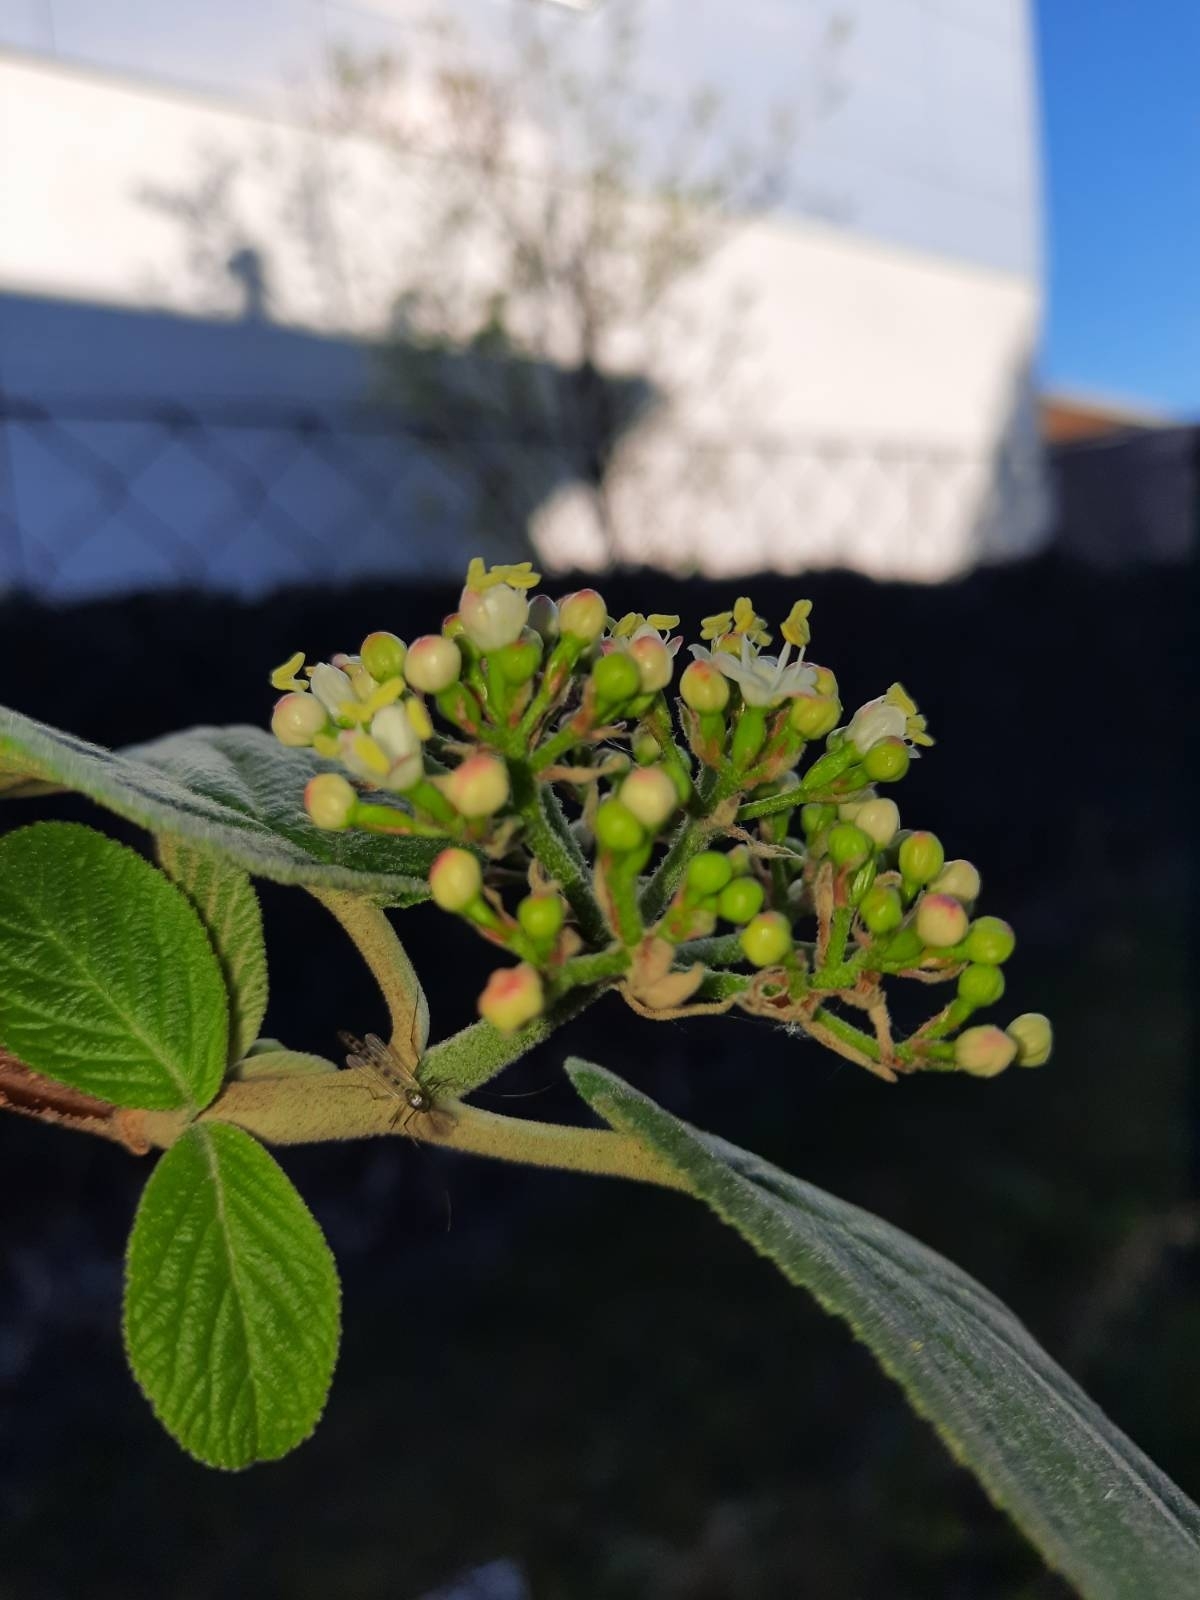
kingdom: Plantae
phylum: Tracheophyta
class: Magnoliopsida
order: Dipsacales
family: Viburnaceae
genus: Viburnum
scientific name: Viburnum lantana
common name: Wayfaring tree
